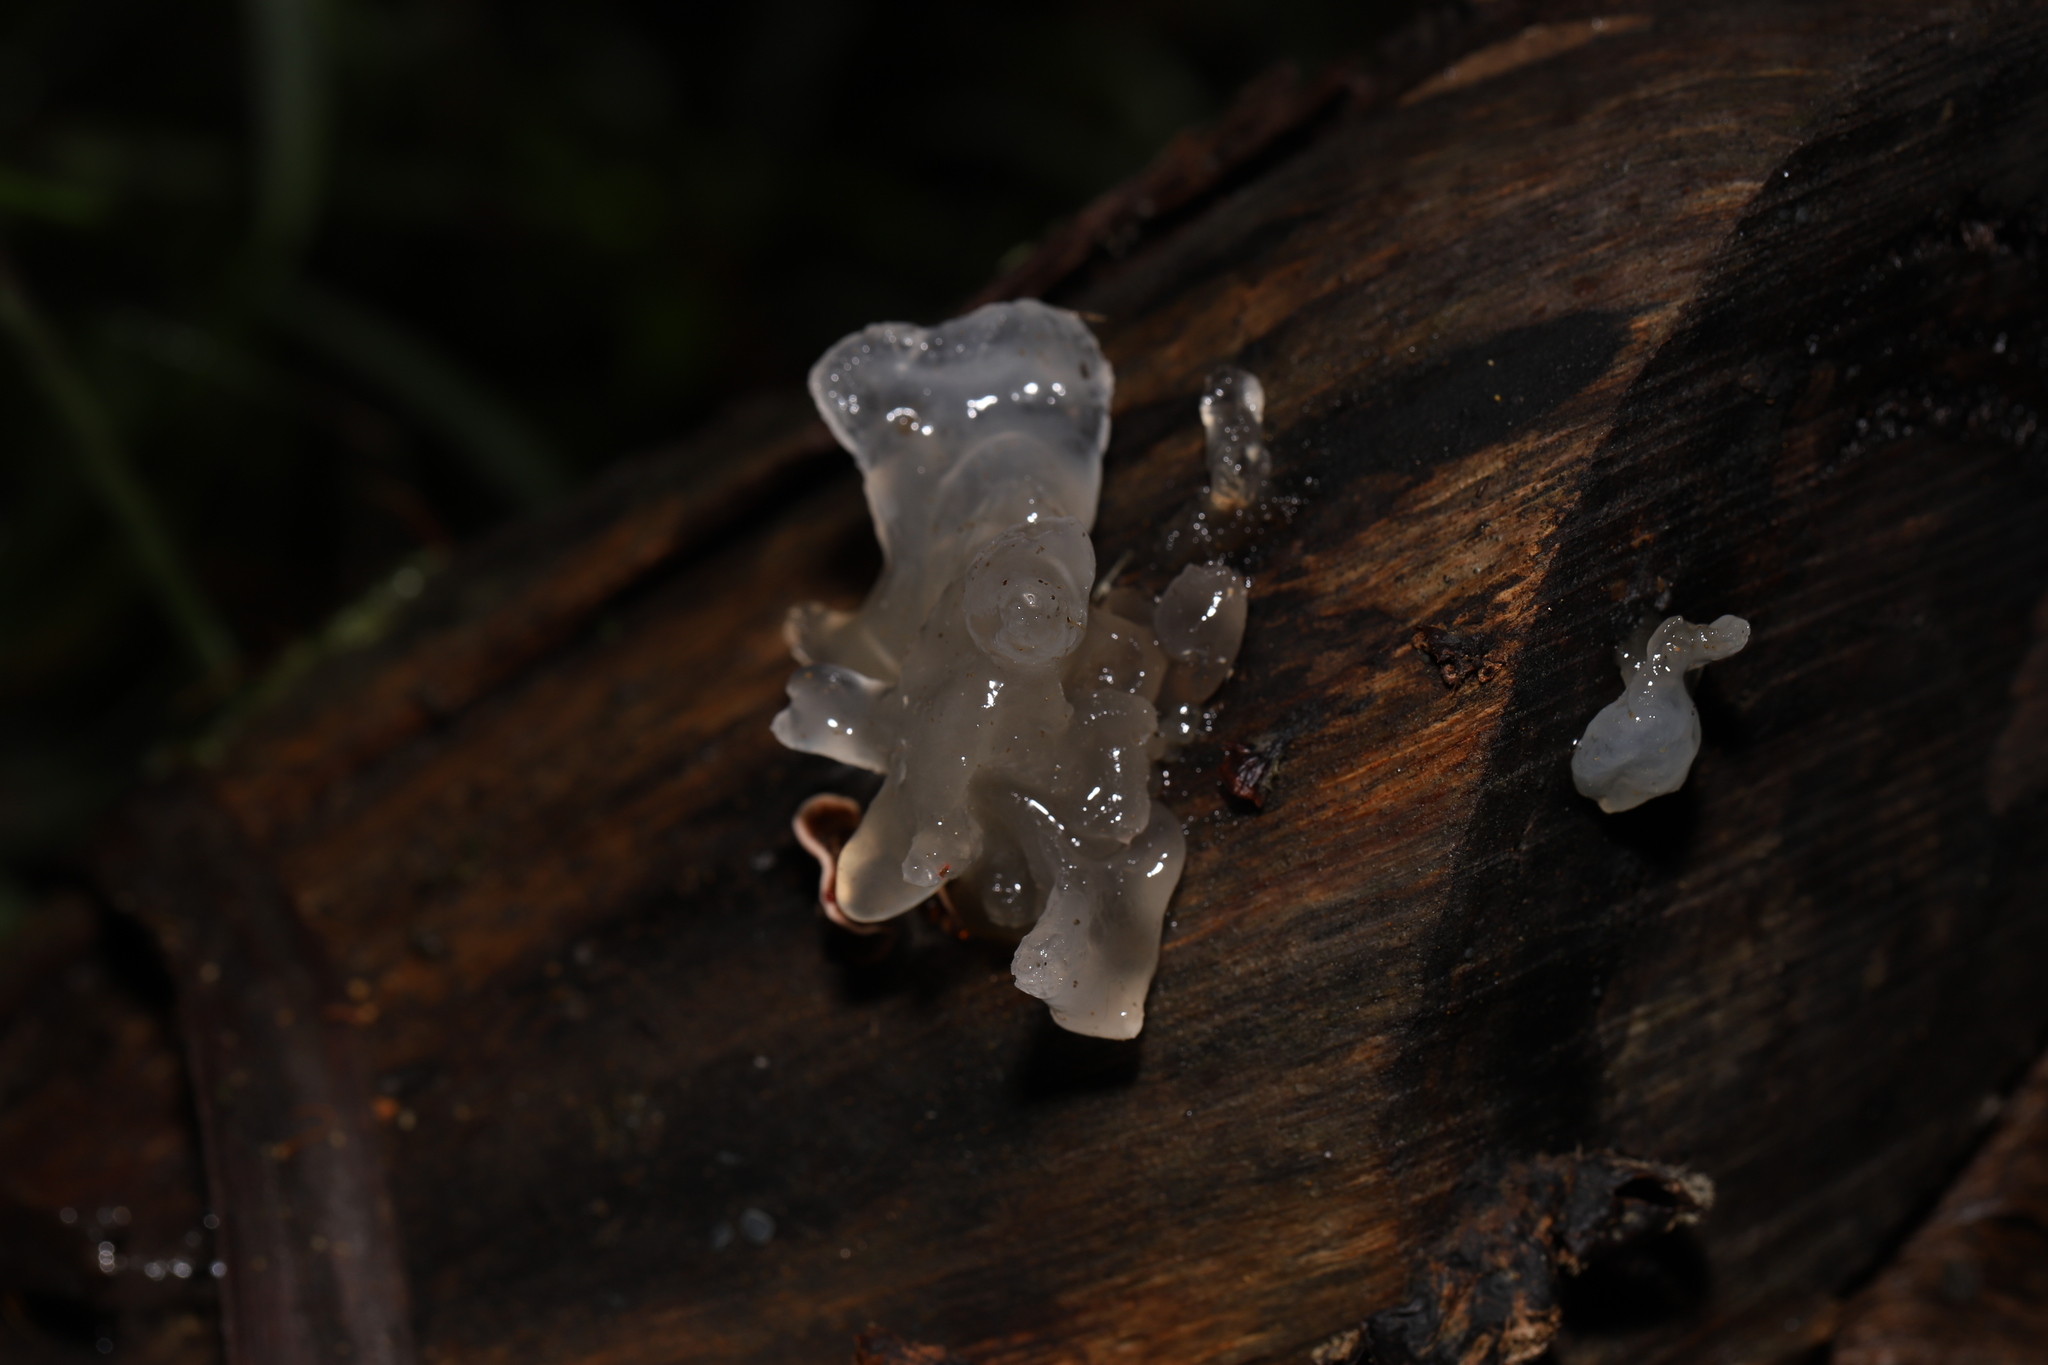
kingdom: Fungi
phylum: Basidiomycota
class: Tremellomycetes
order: Tremellales
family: Tremellaceae
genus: Tremella
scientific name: Tremella fuciformis
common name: Snow fungus
